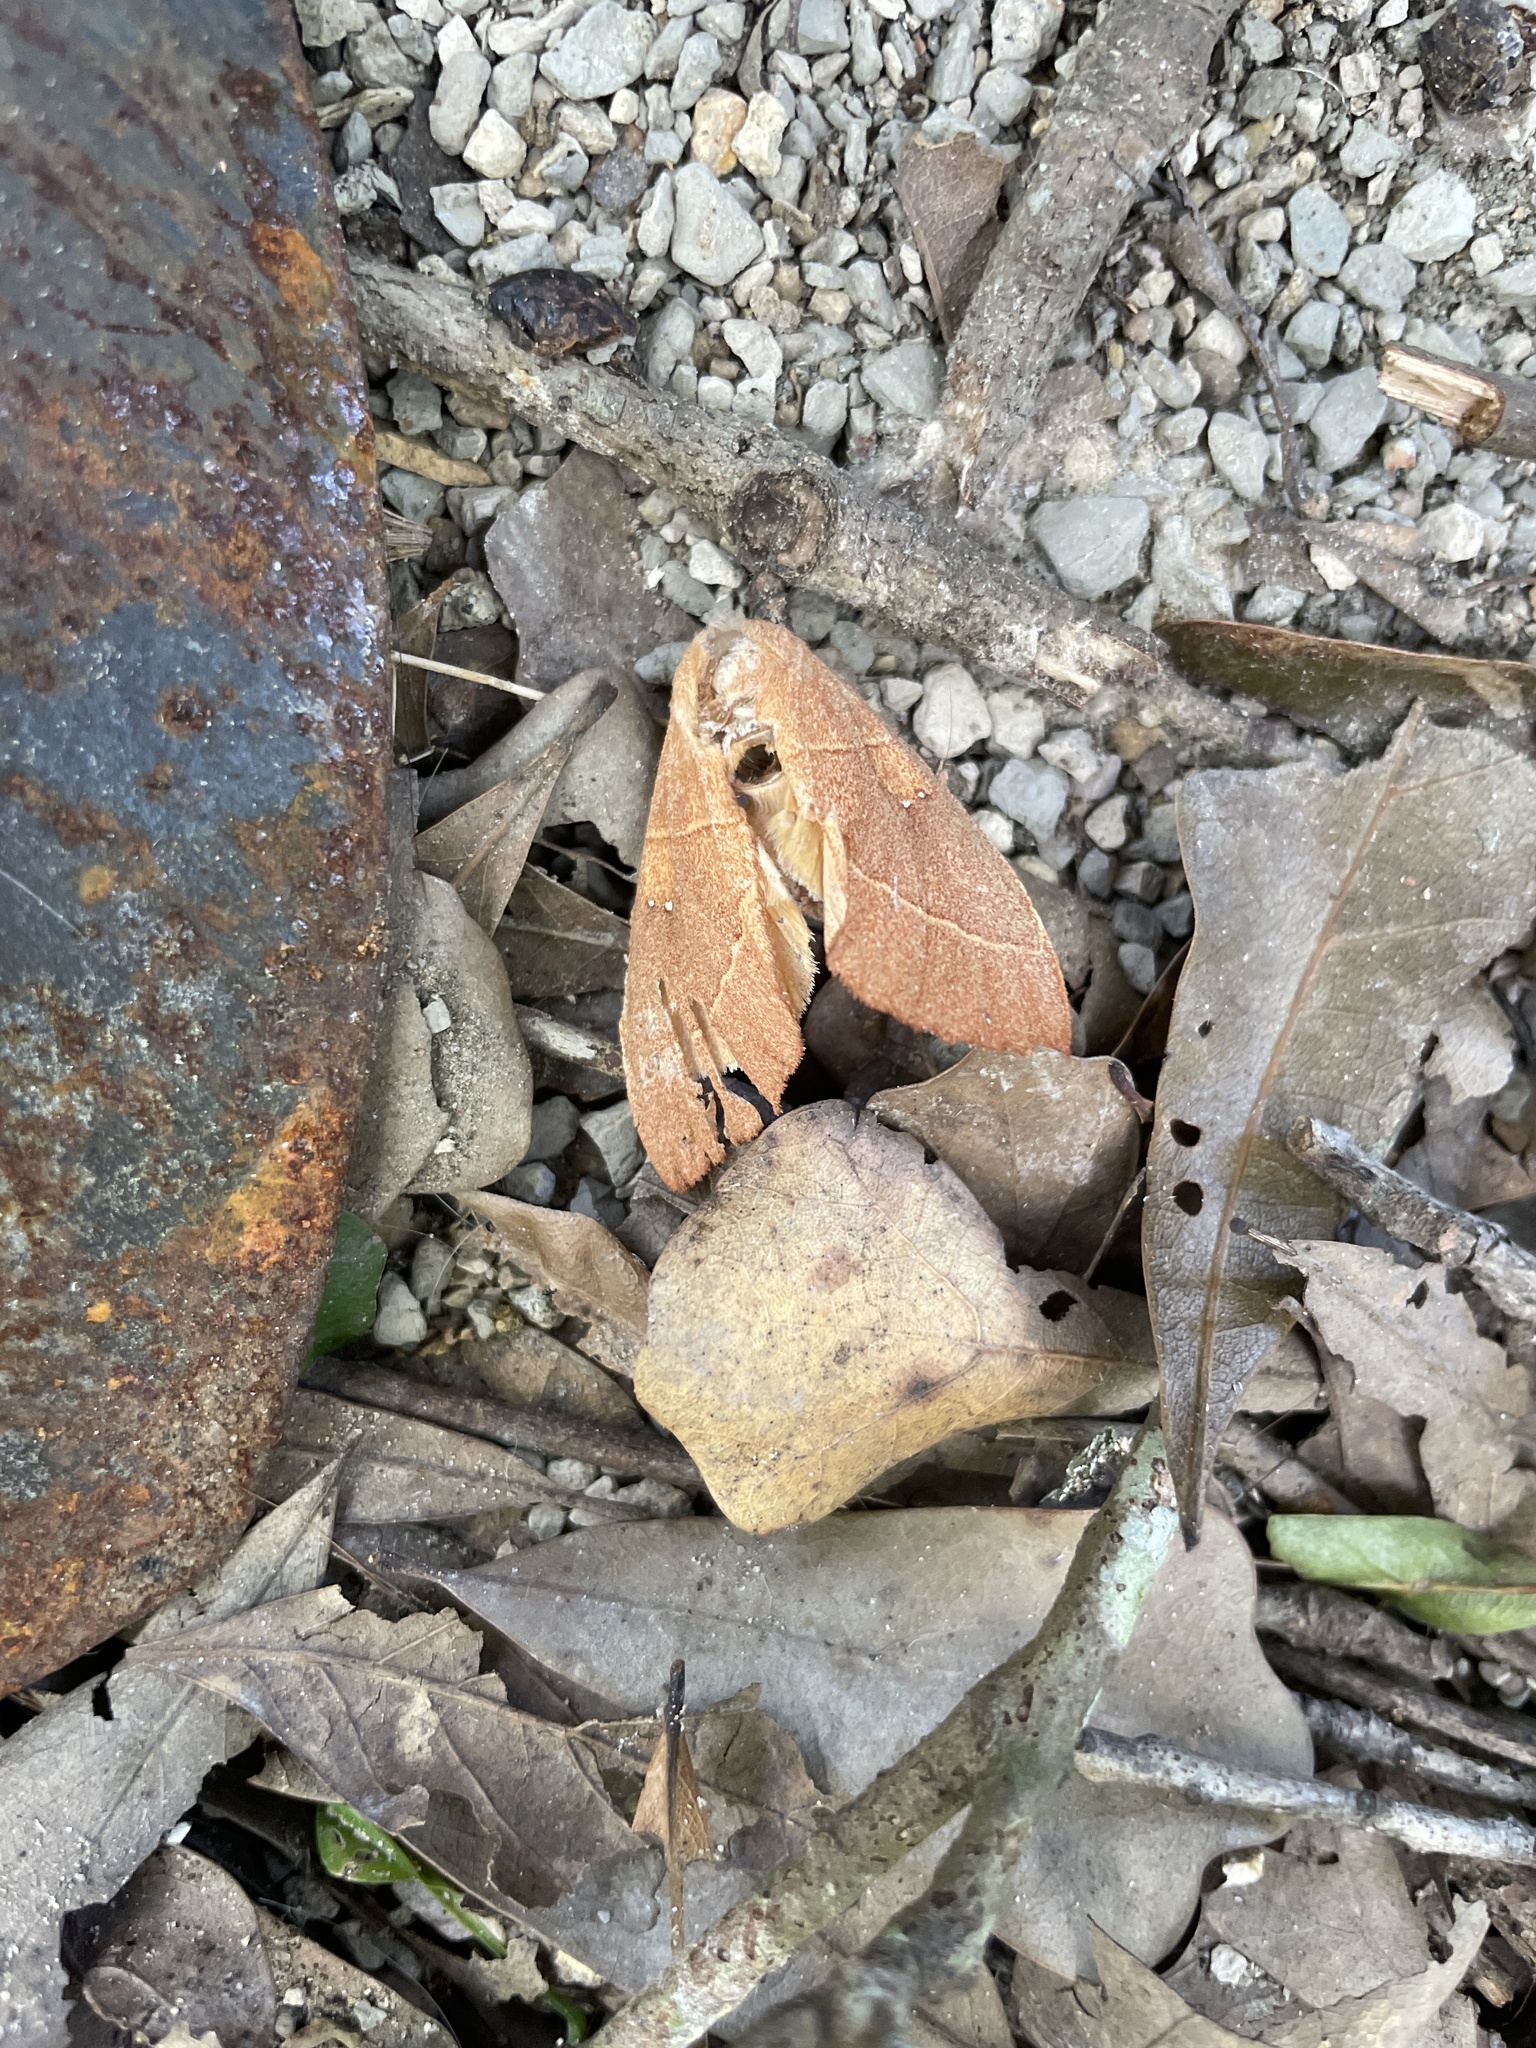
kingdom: Animalia
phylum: Arthropoda
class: Insecta
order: Lepidoptera
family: Notodontidae
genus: Nadata
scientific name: Nadata gibbosa
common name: White-dotted prominent
